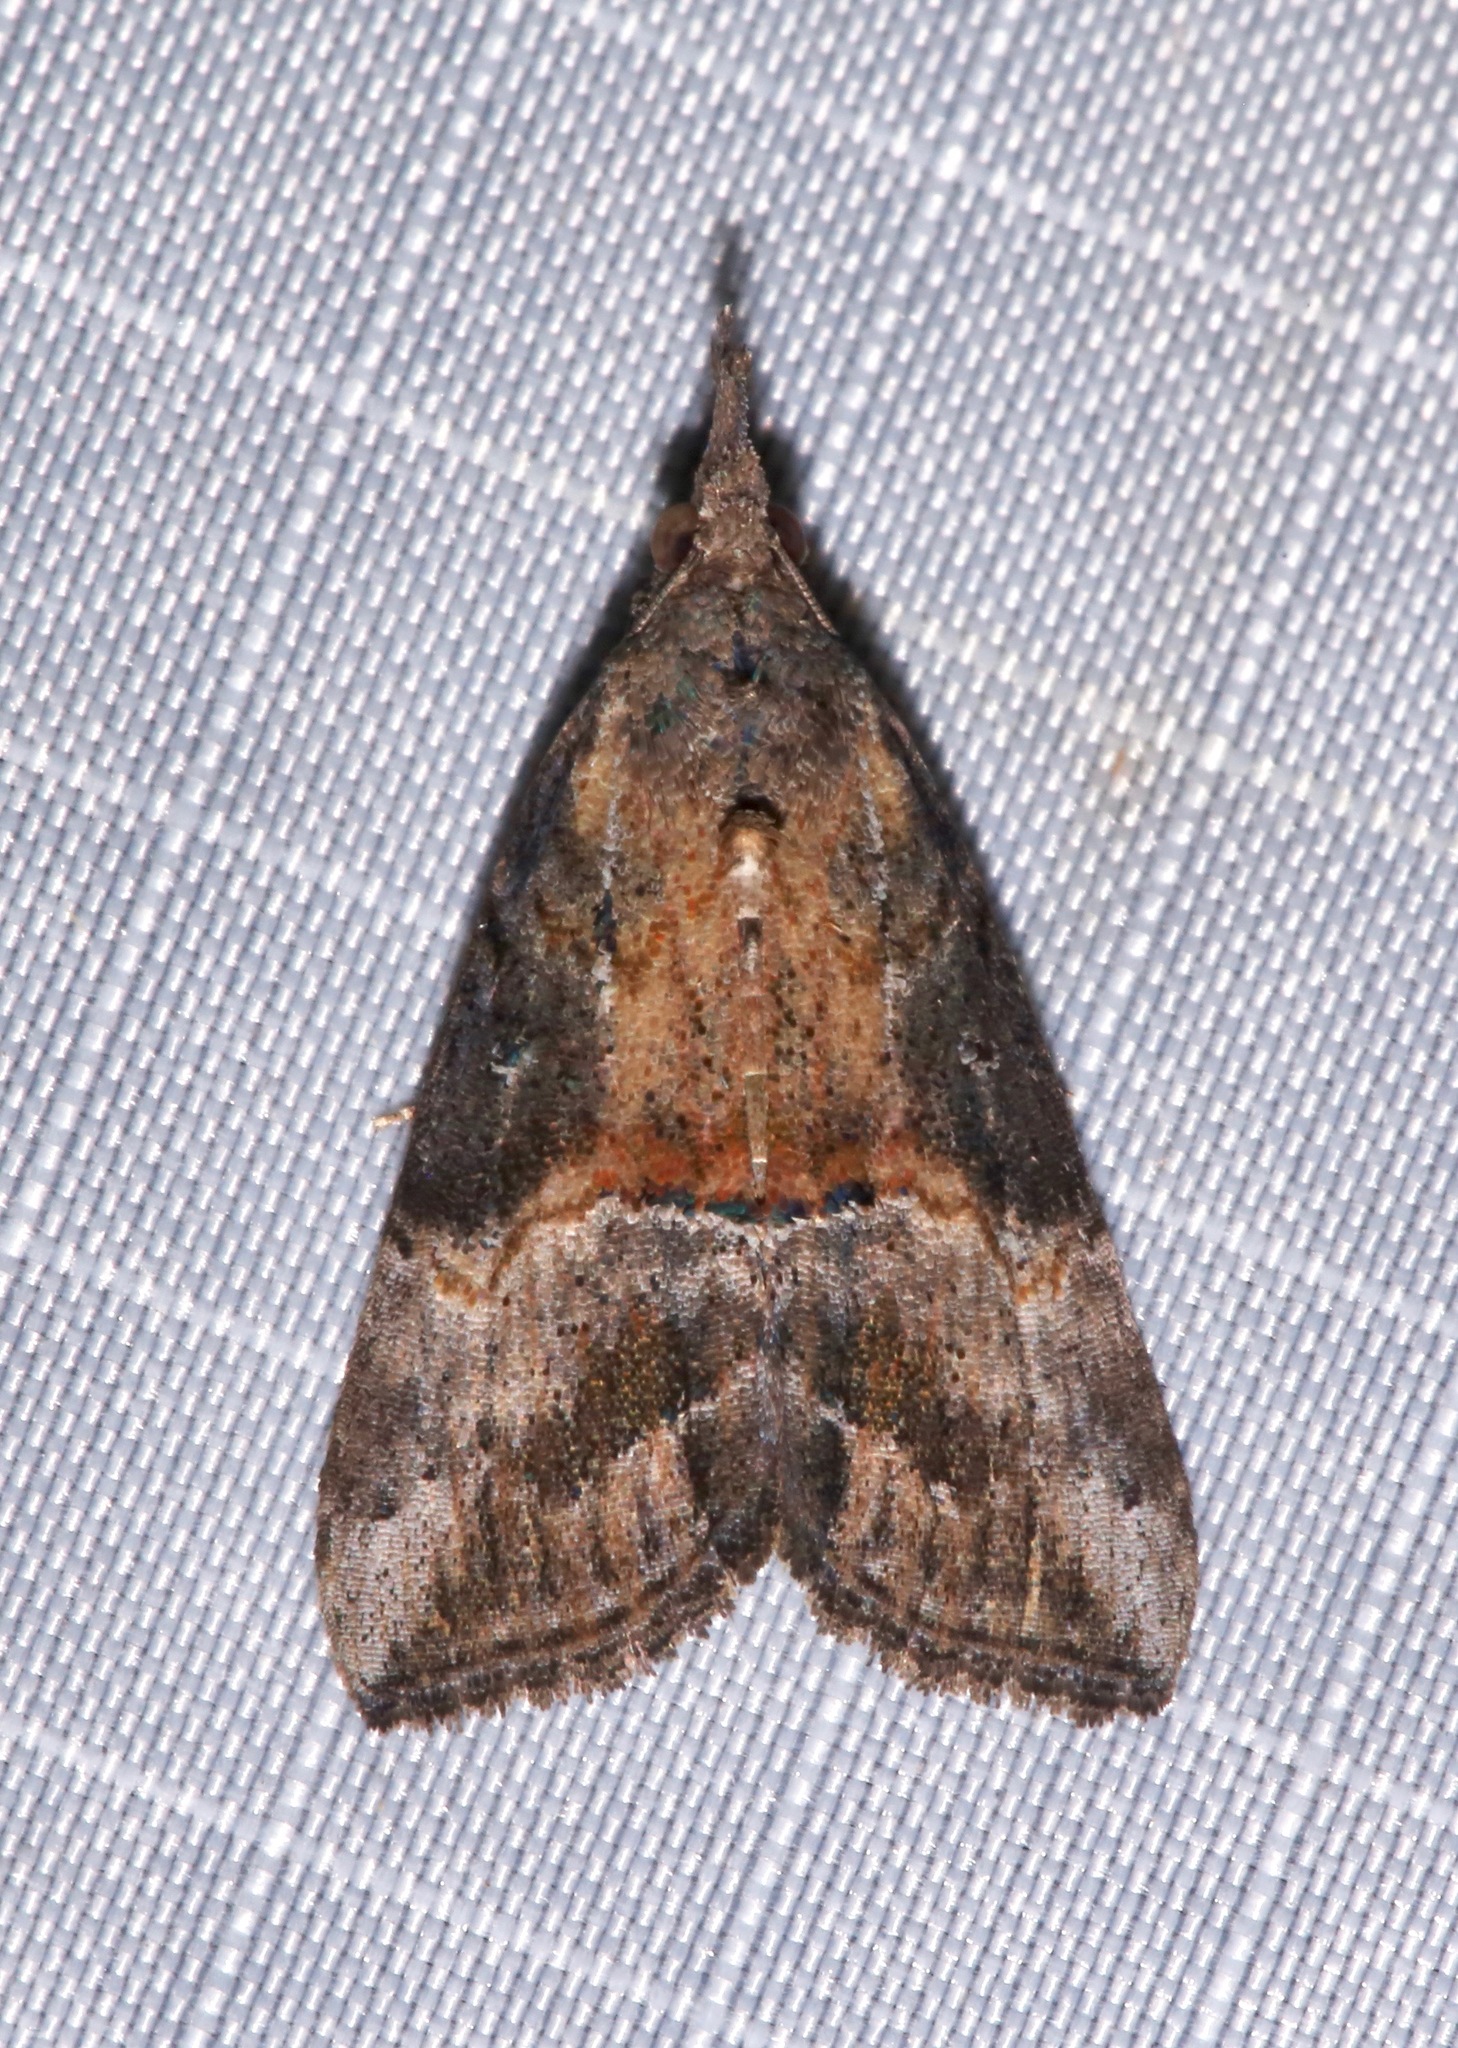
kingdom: Animalia
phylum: Arthropoda
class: Insecta
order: Lepidoptera
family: Erebidae
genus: Hypena
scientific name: Hypena scabra
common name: Green cloverworm
